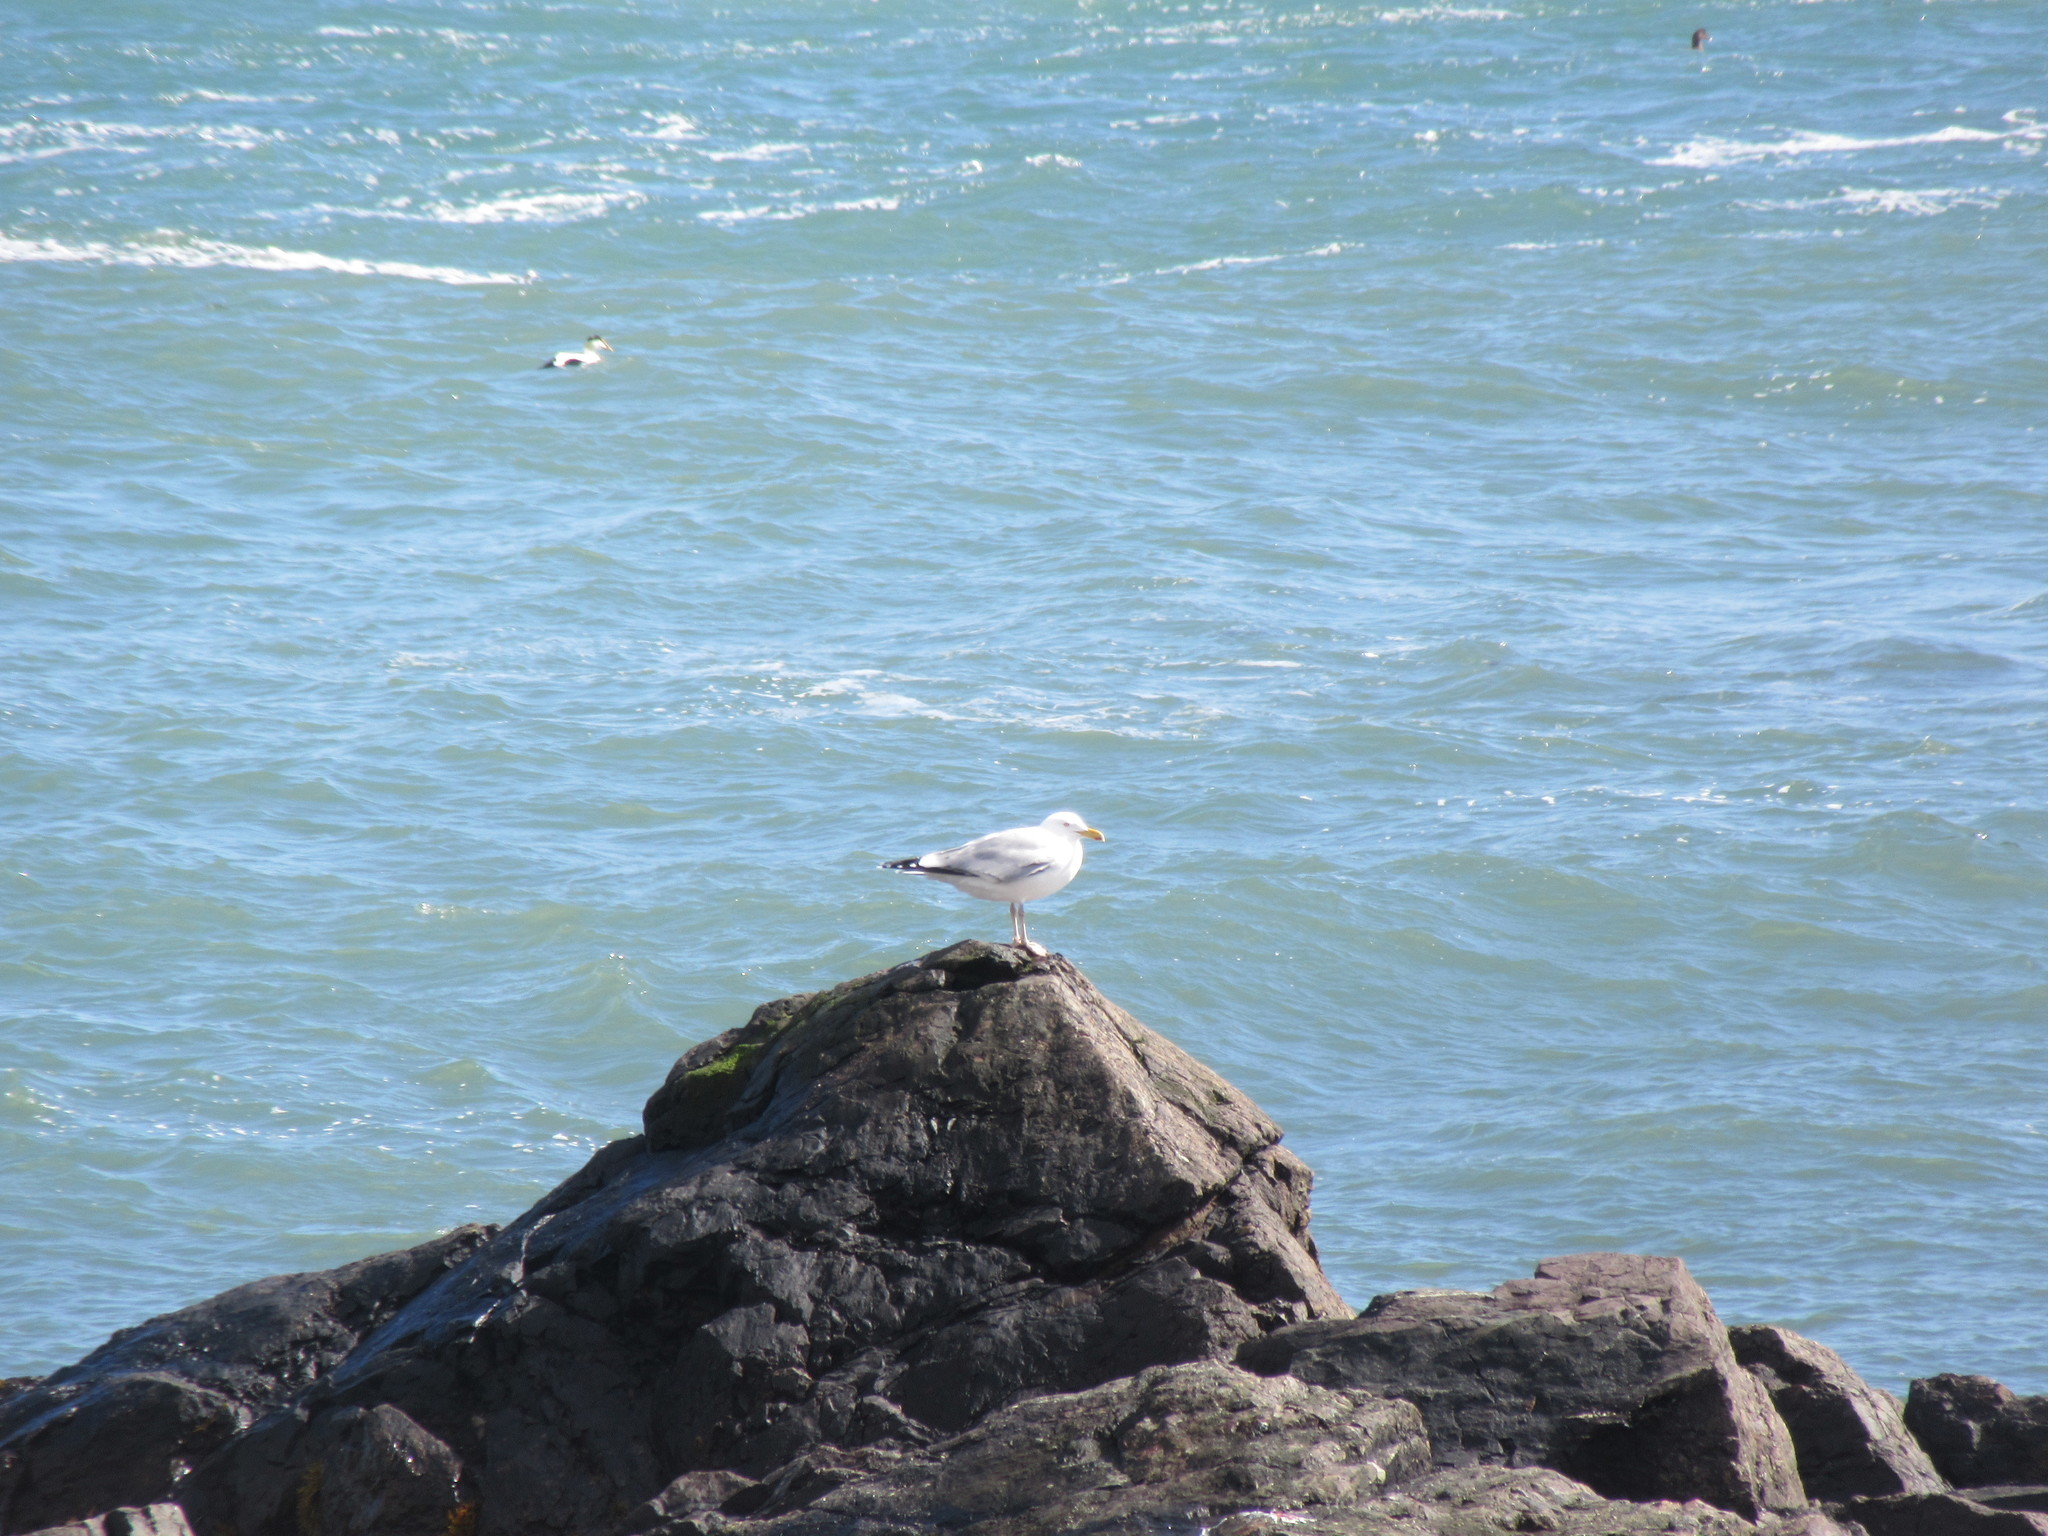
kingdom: Animalia
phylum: Chordata
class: Aves
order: Charadriiformes
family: Laridae
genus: Larus
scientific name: Larus argentatus
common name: Herring gull
